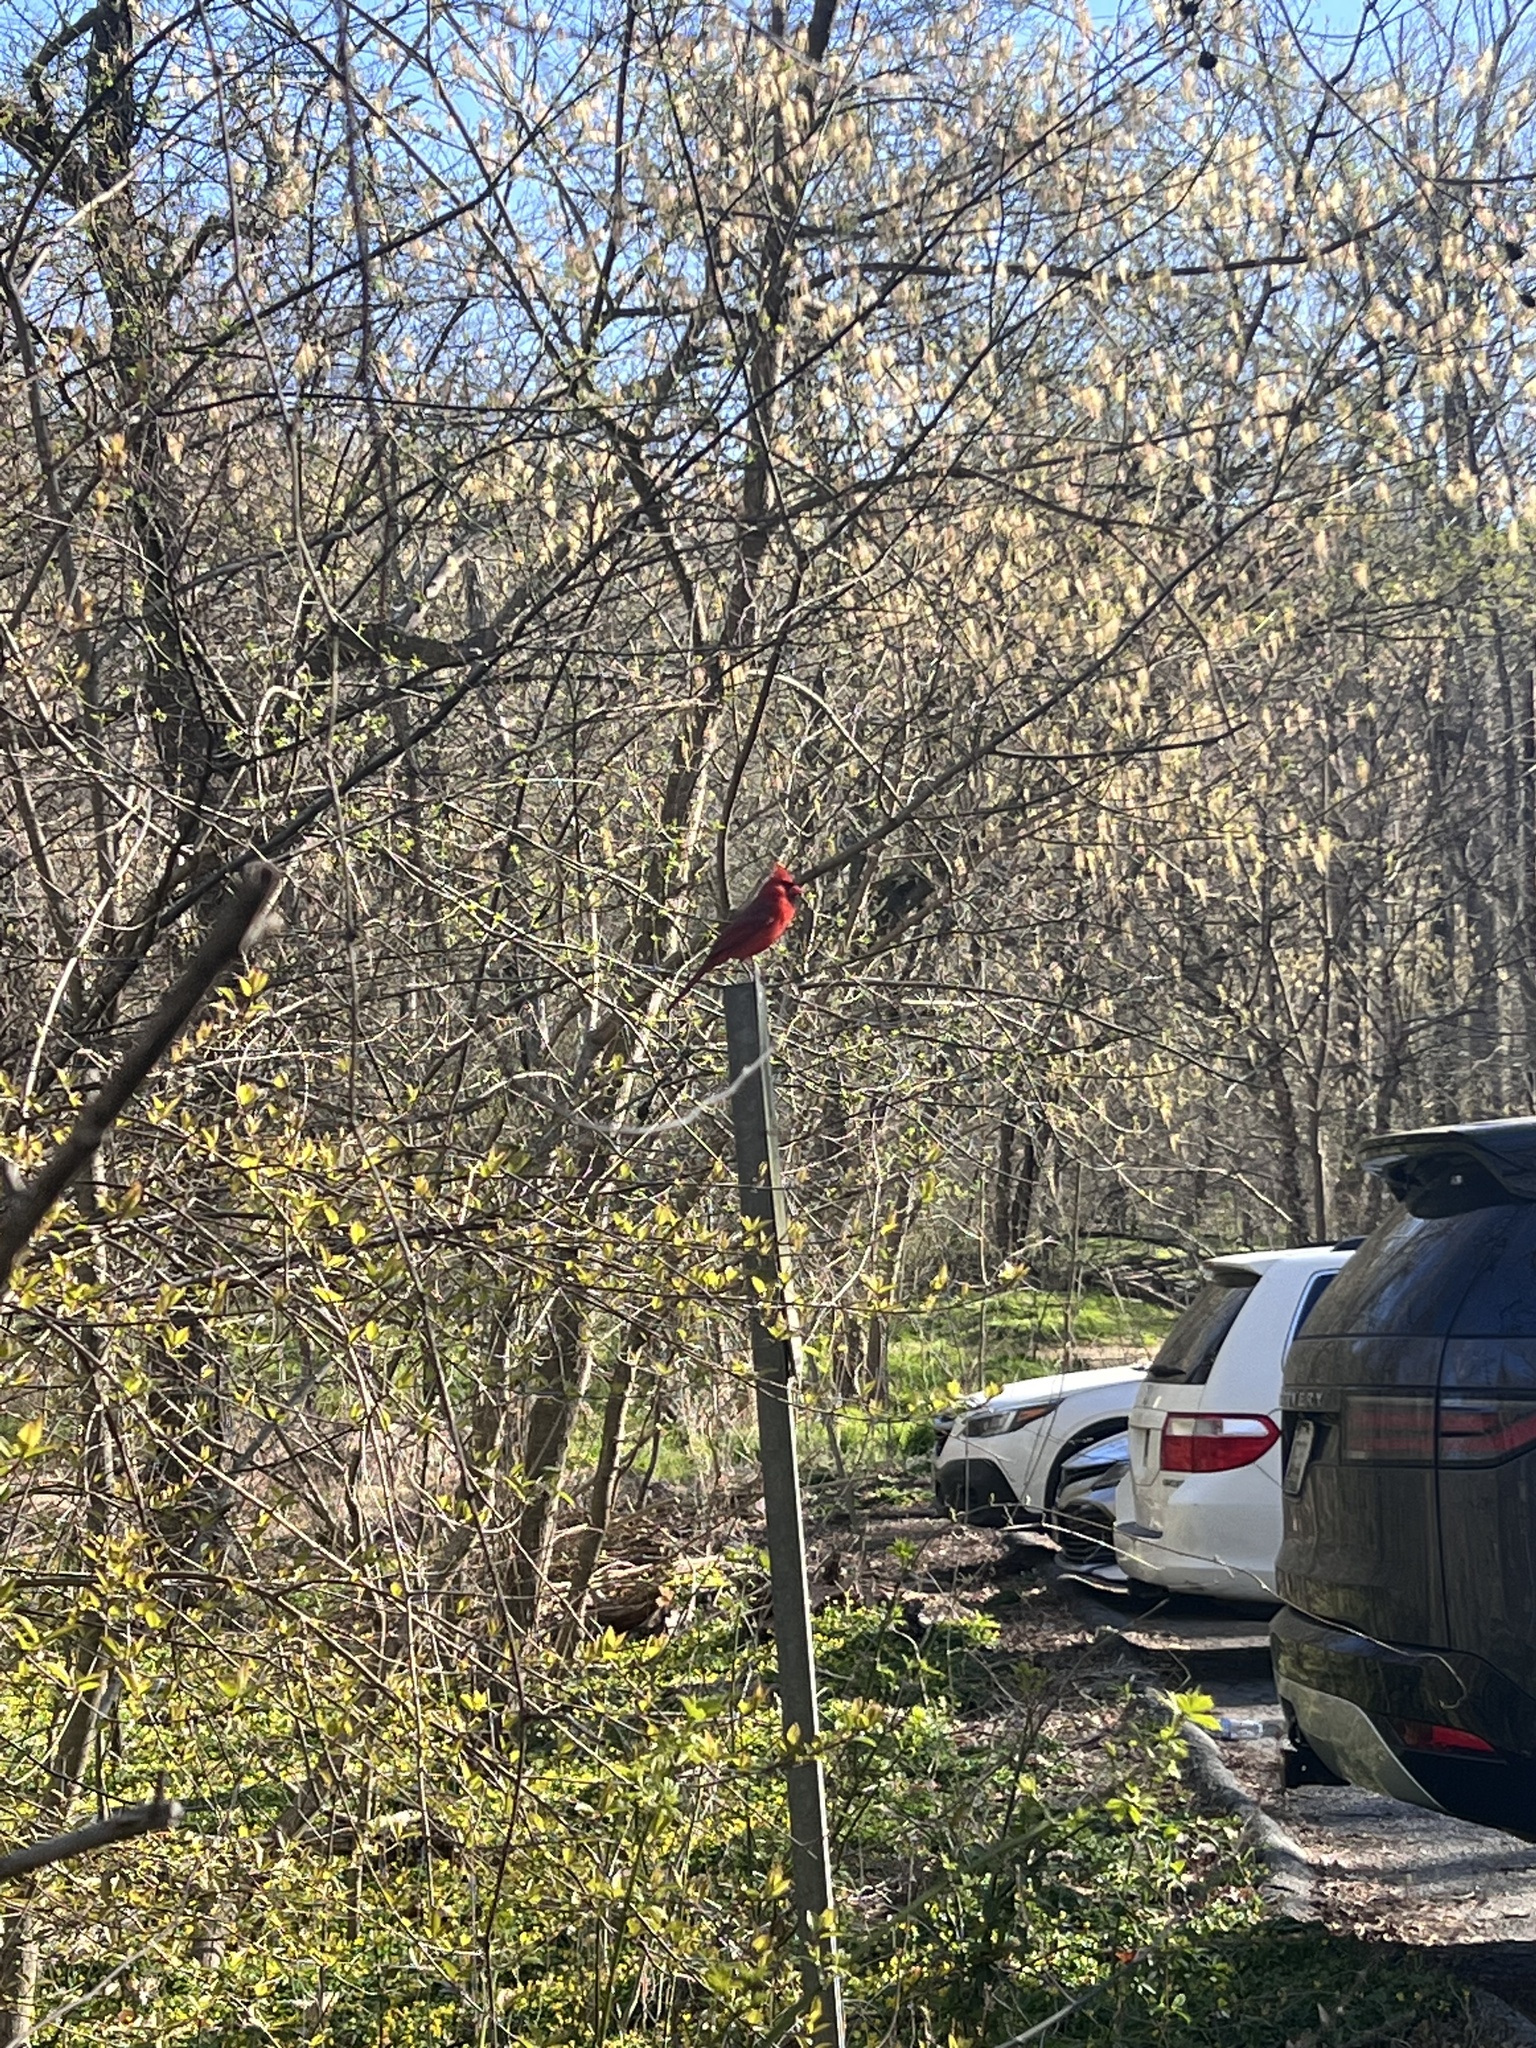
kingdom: Animalia
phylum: Chordata
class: Aves
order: Passeriformes
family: Cardinalidae
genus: Cardinalis
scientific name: Cardinalis cardinalis
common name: Northern cardinal
